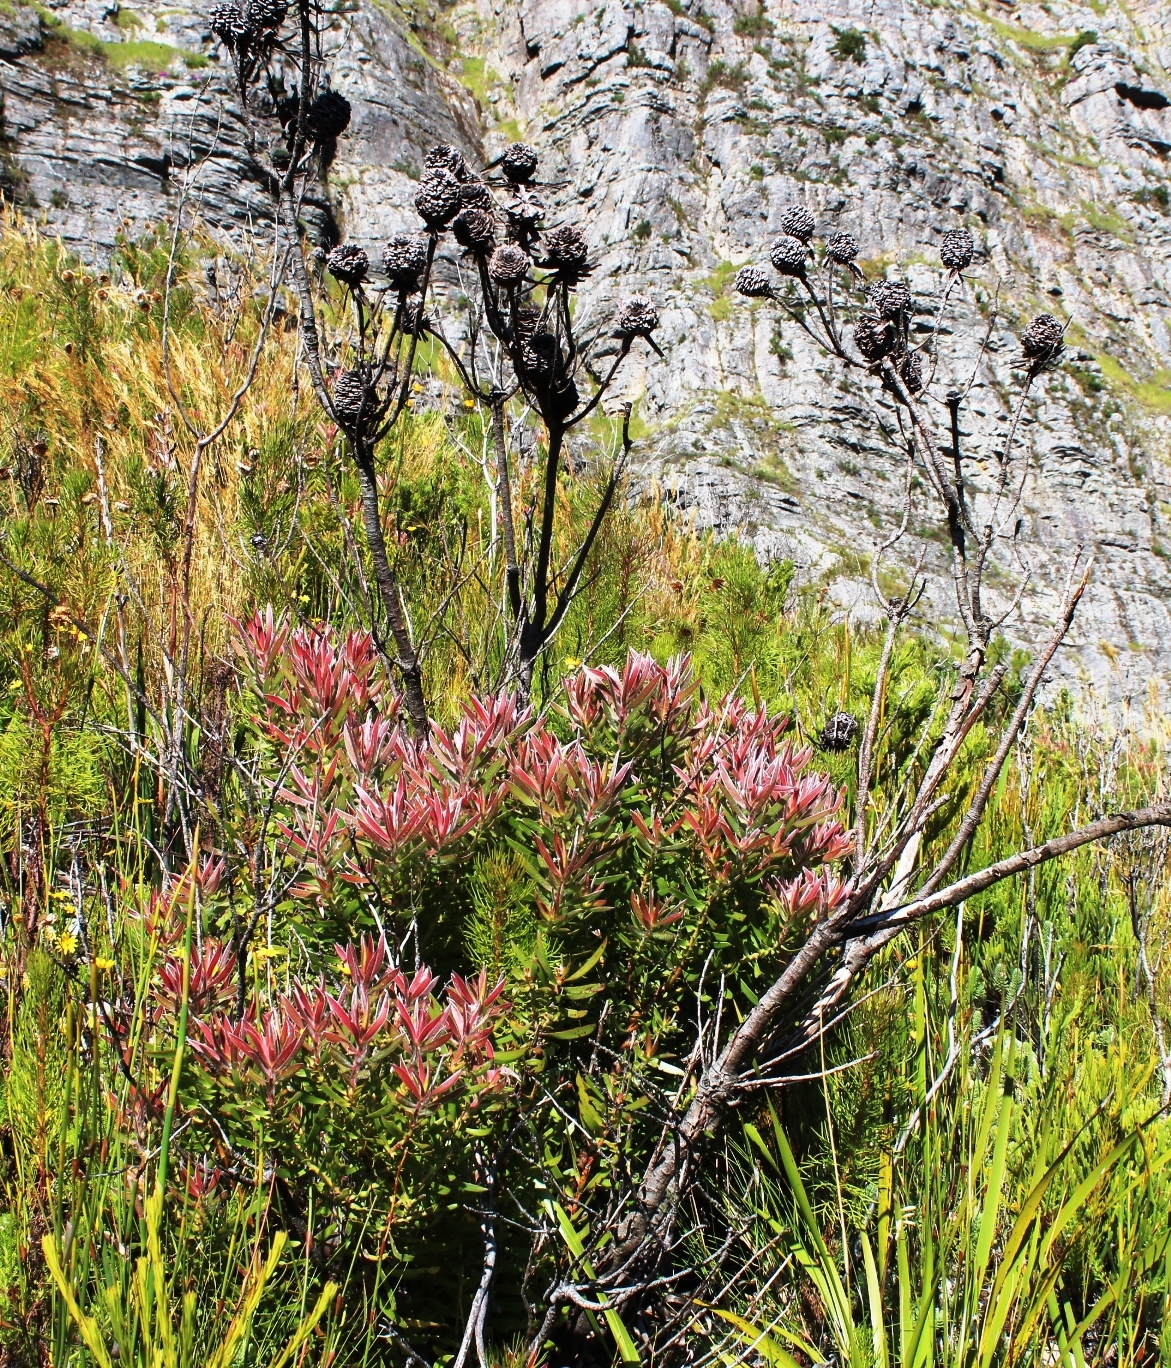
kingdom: Plantae
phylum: Tracheophyta
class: Magnoliopsida
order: Proteales
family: Proteaceae
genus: Leucadendron
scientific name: Leucadendron spissifolium
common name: Spear-leaf conebush
